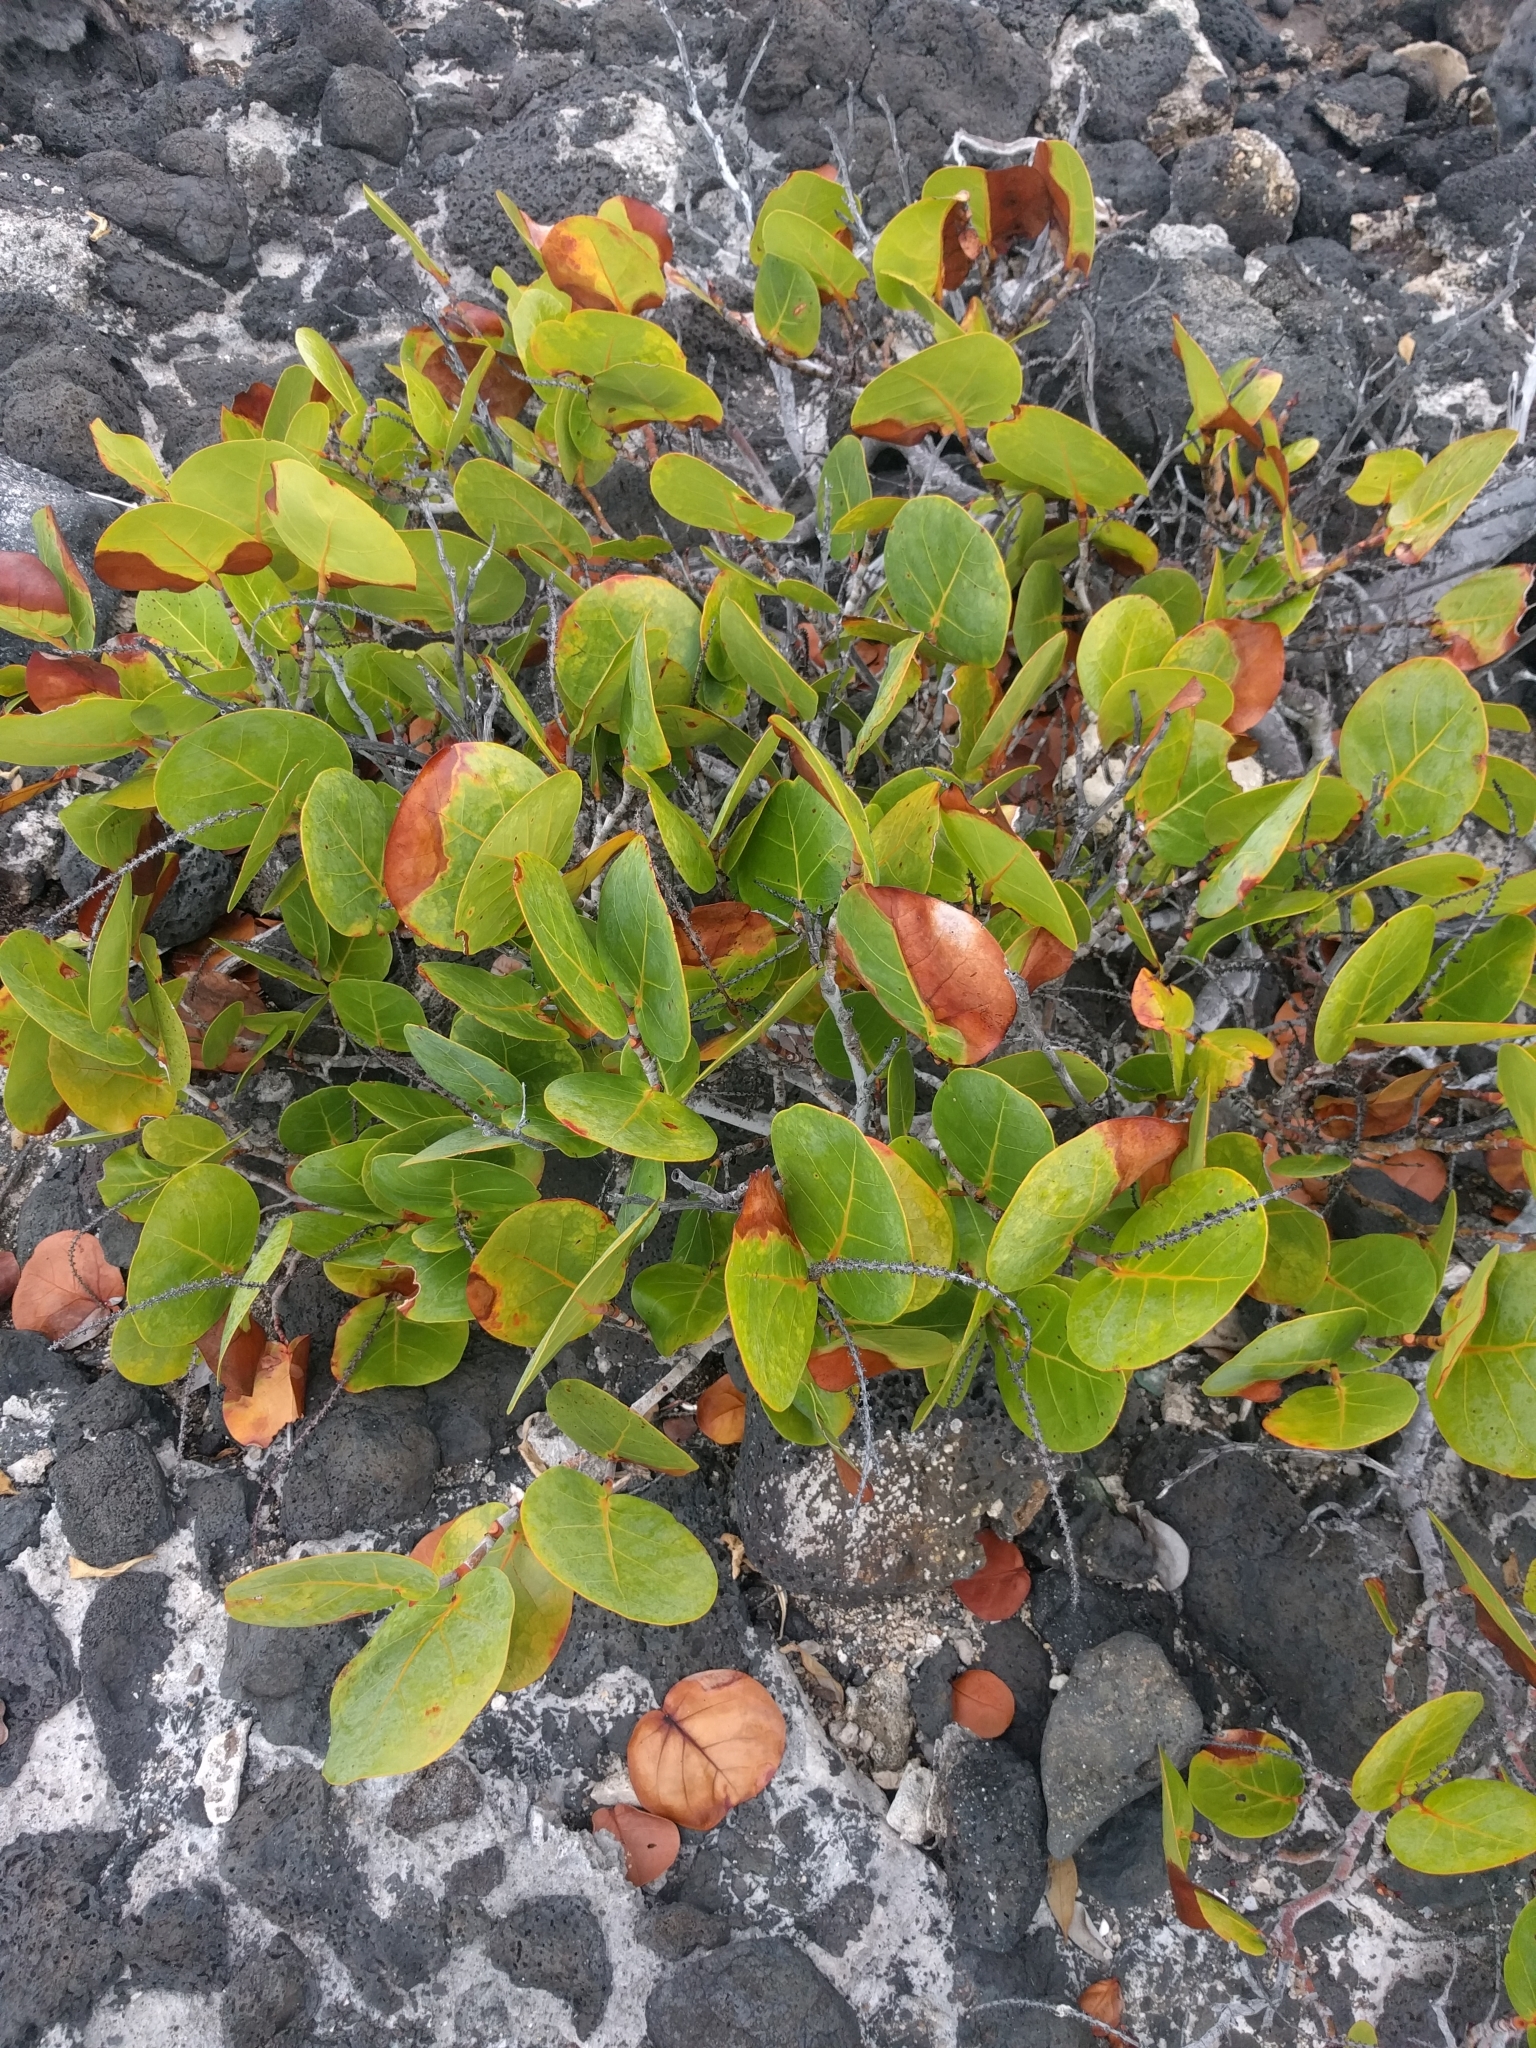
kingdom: Plantae
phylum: Tracheophyta
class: Magnoliopsida
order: Caryophyllales
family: Polygonaceae
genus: Coccoloba
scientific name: Coccoloba uvifera
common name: Seagrape
